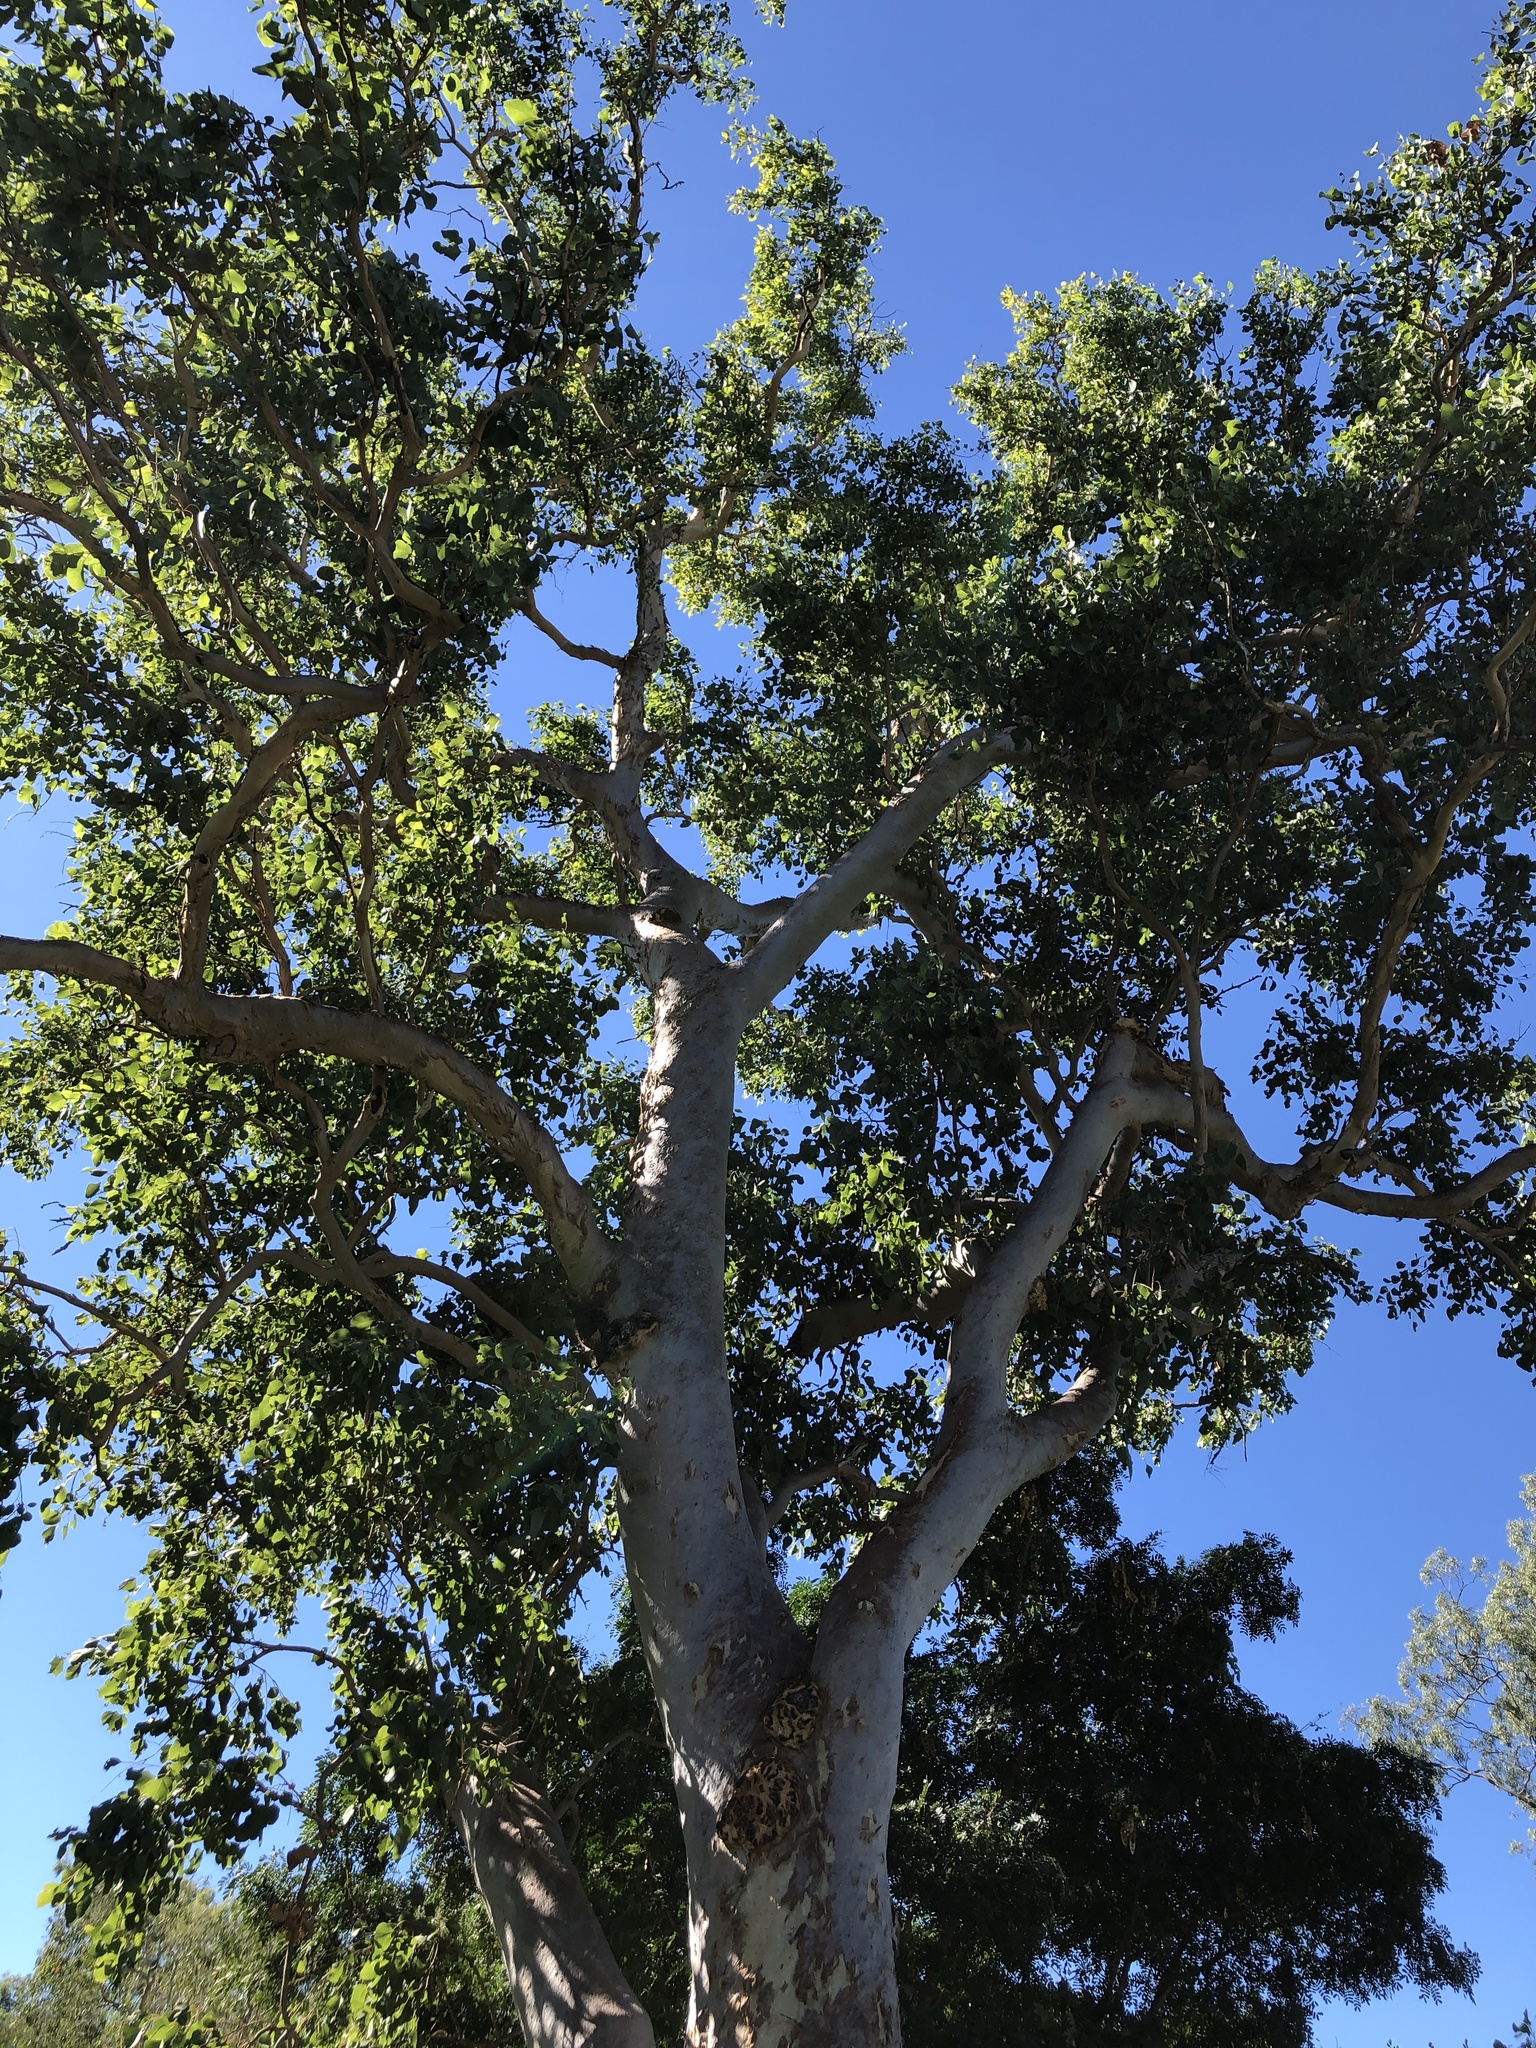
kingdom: Plantae
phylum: Tracheophyta
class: Magnoliopsida
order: Myrtales
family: Myrtaceae
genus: Eucalyptus
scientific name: Eucalyptus platyphylla
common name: Poplar-gum
